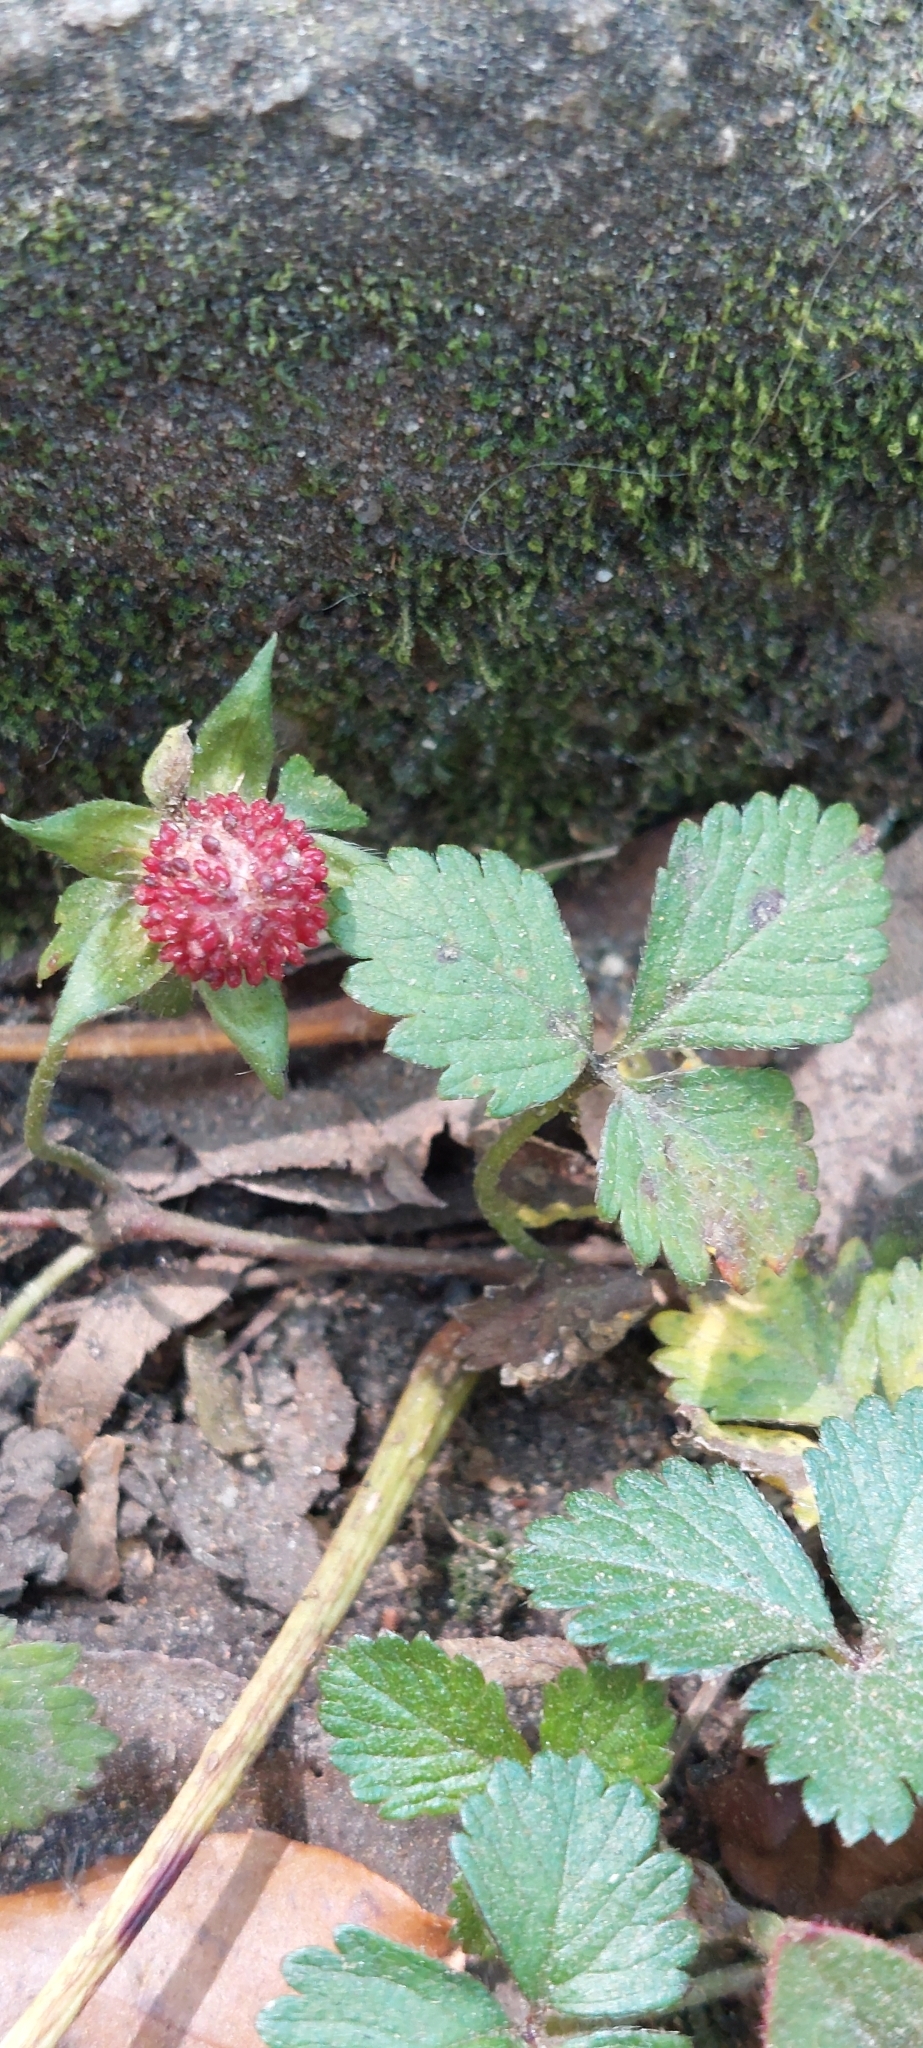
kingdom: Plantae
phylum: Tracheophyta
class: Magnoliopsida
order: Rosales
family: Rosaceae
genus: Potentilla
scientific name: Potentilla indica
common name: Yellow-flowered strawberry
